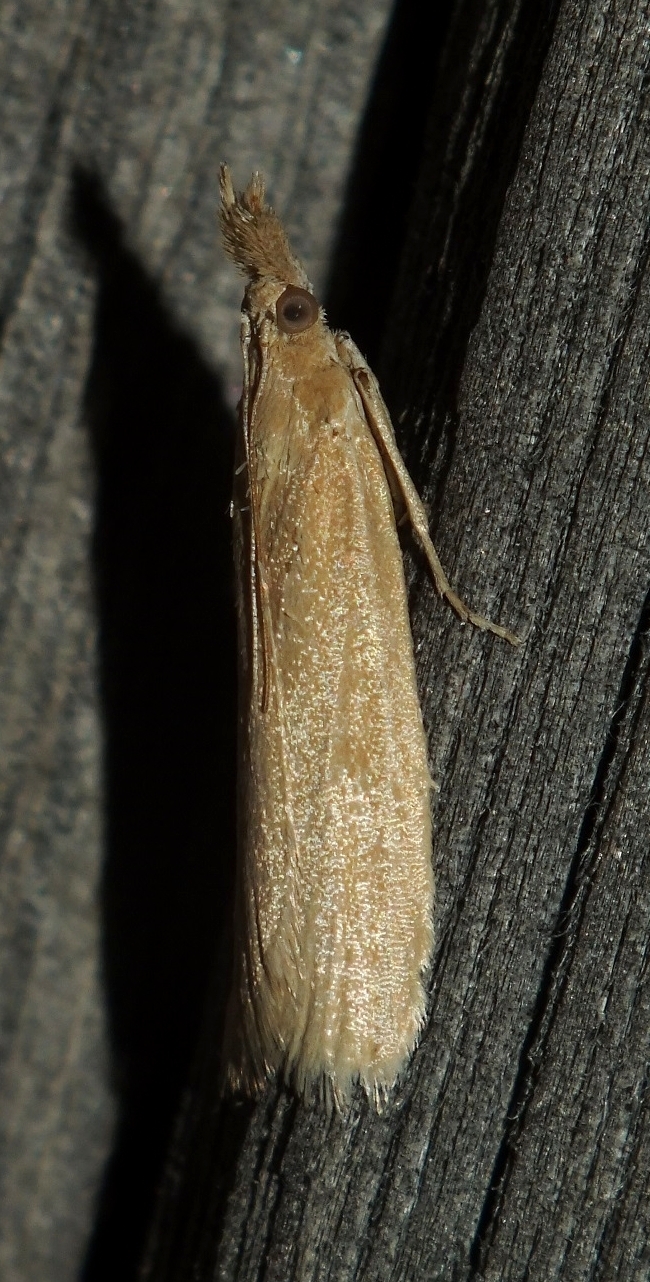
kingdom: Animalia
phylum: Arthropoda
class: Insecta
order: Lepidoptera
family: Pyralidae
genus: Anerastia
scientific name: Anerastia lotella
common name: Sandhill knot-horn
